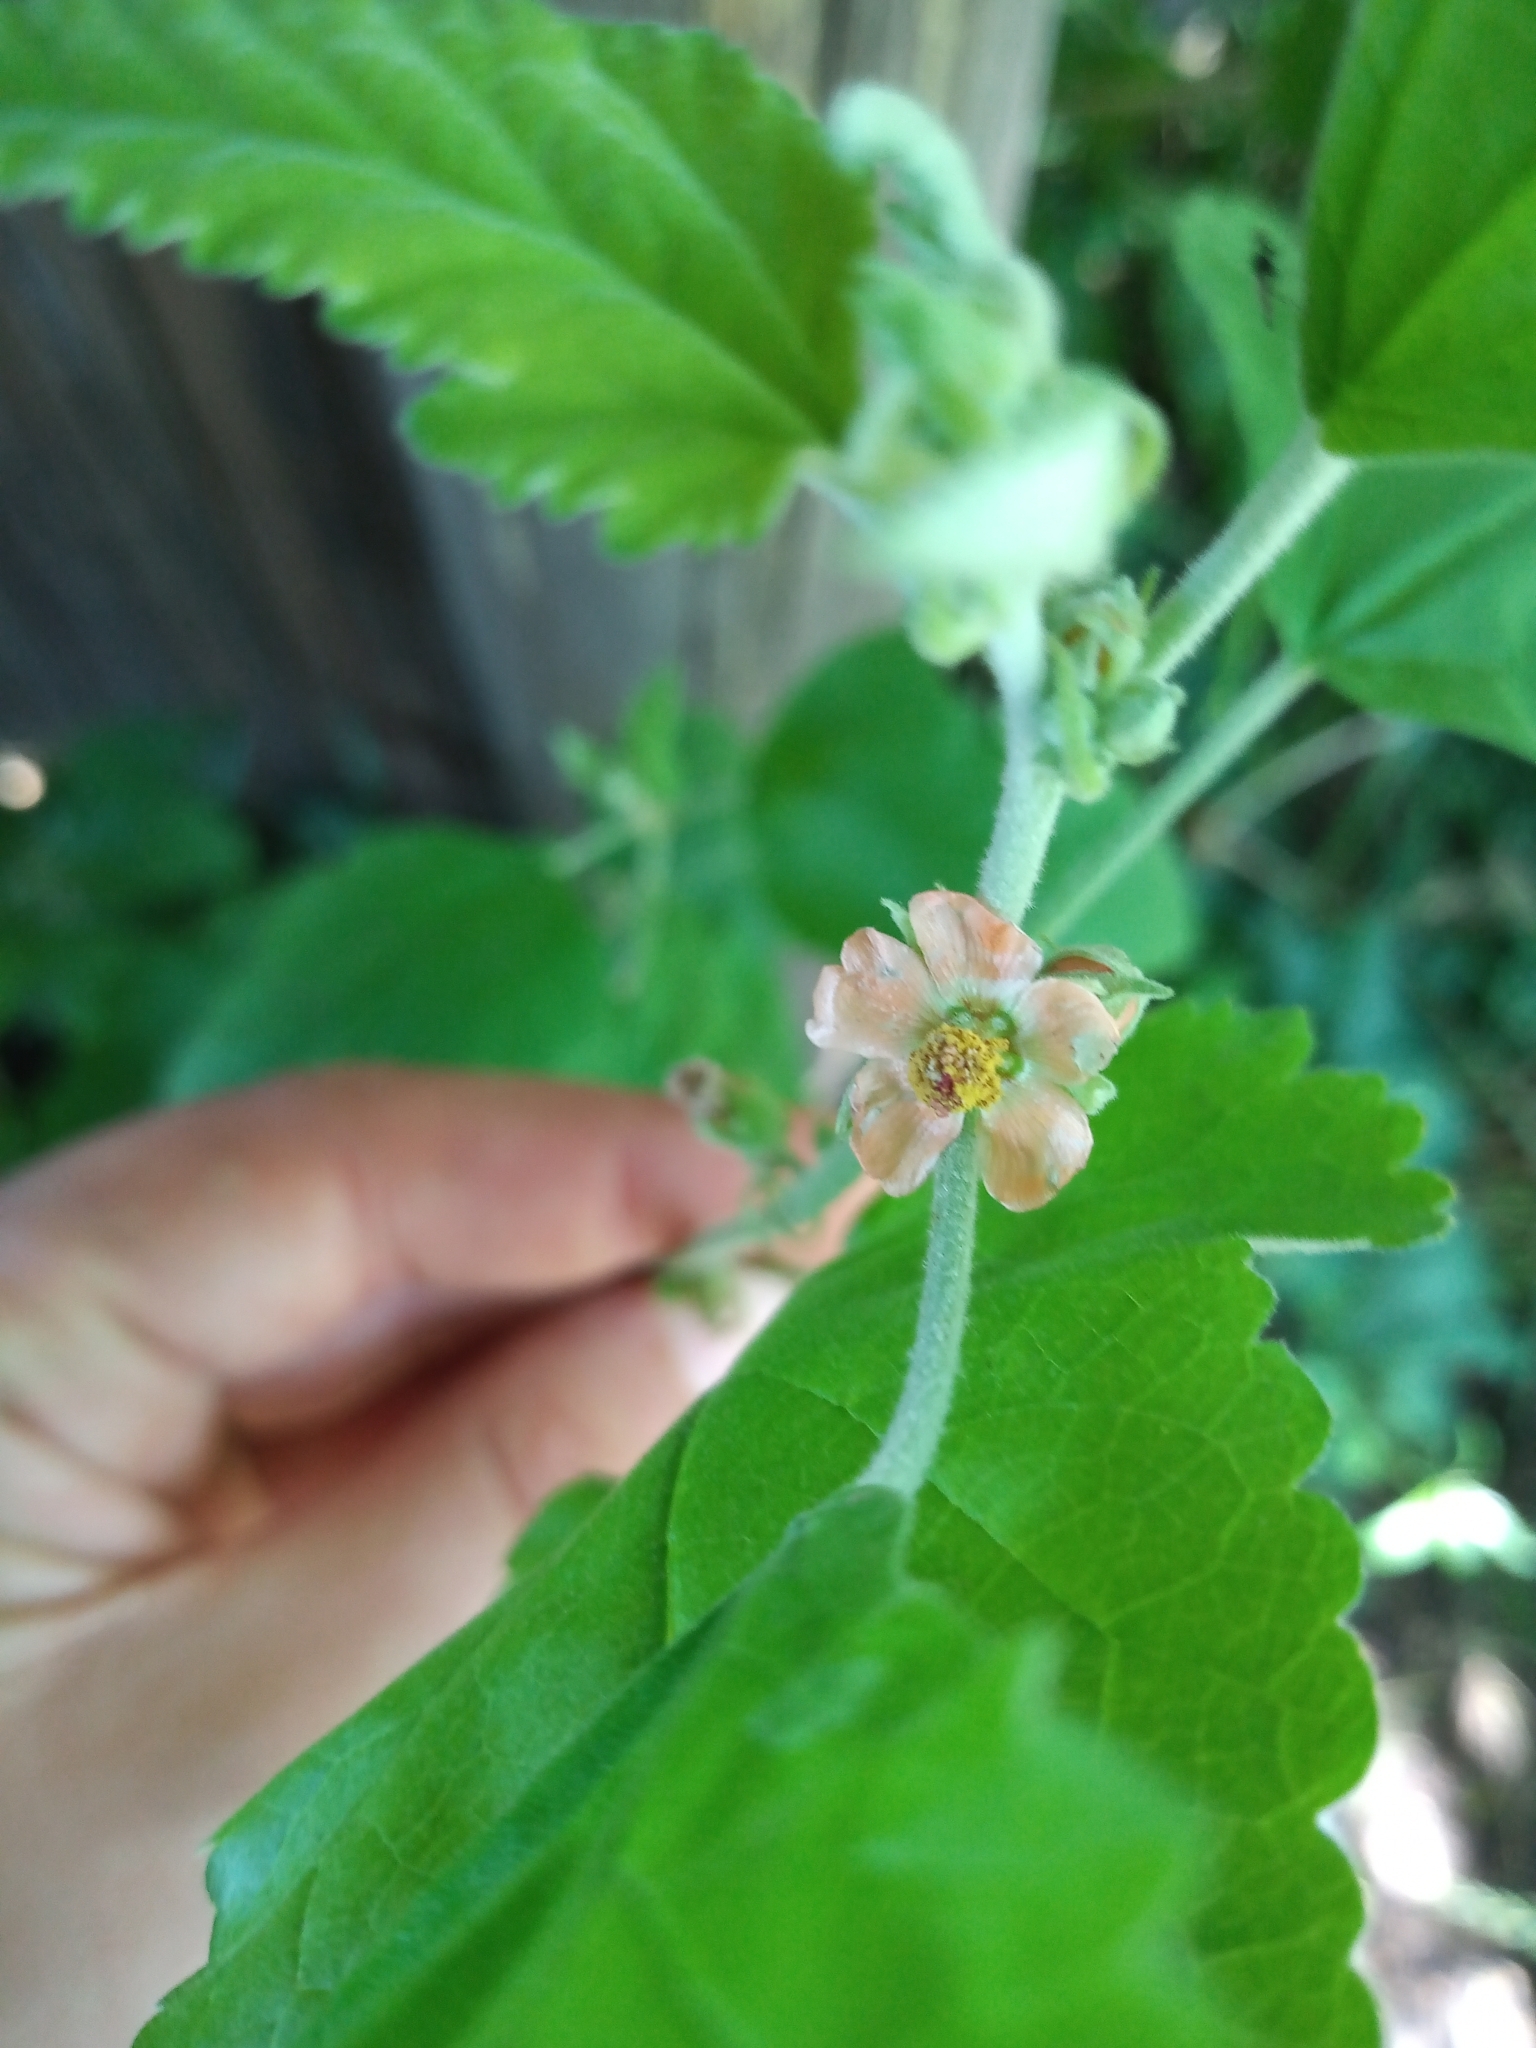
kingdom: Plantae
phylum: Tracheophyta
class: Magnoliopsida
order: Malvales
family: Malvaceae
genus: Sphaeralcea
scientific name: Sphaeralcea bonariensis
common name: Latin globemallow
